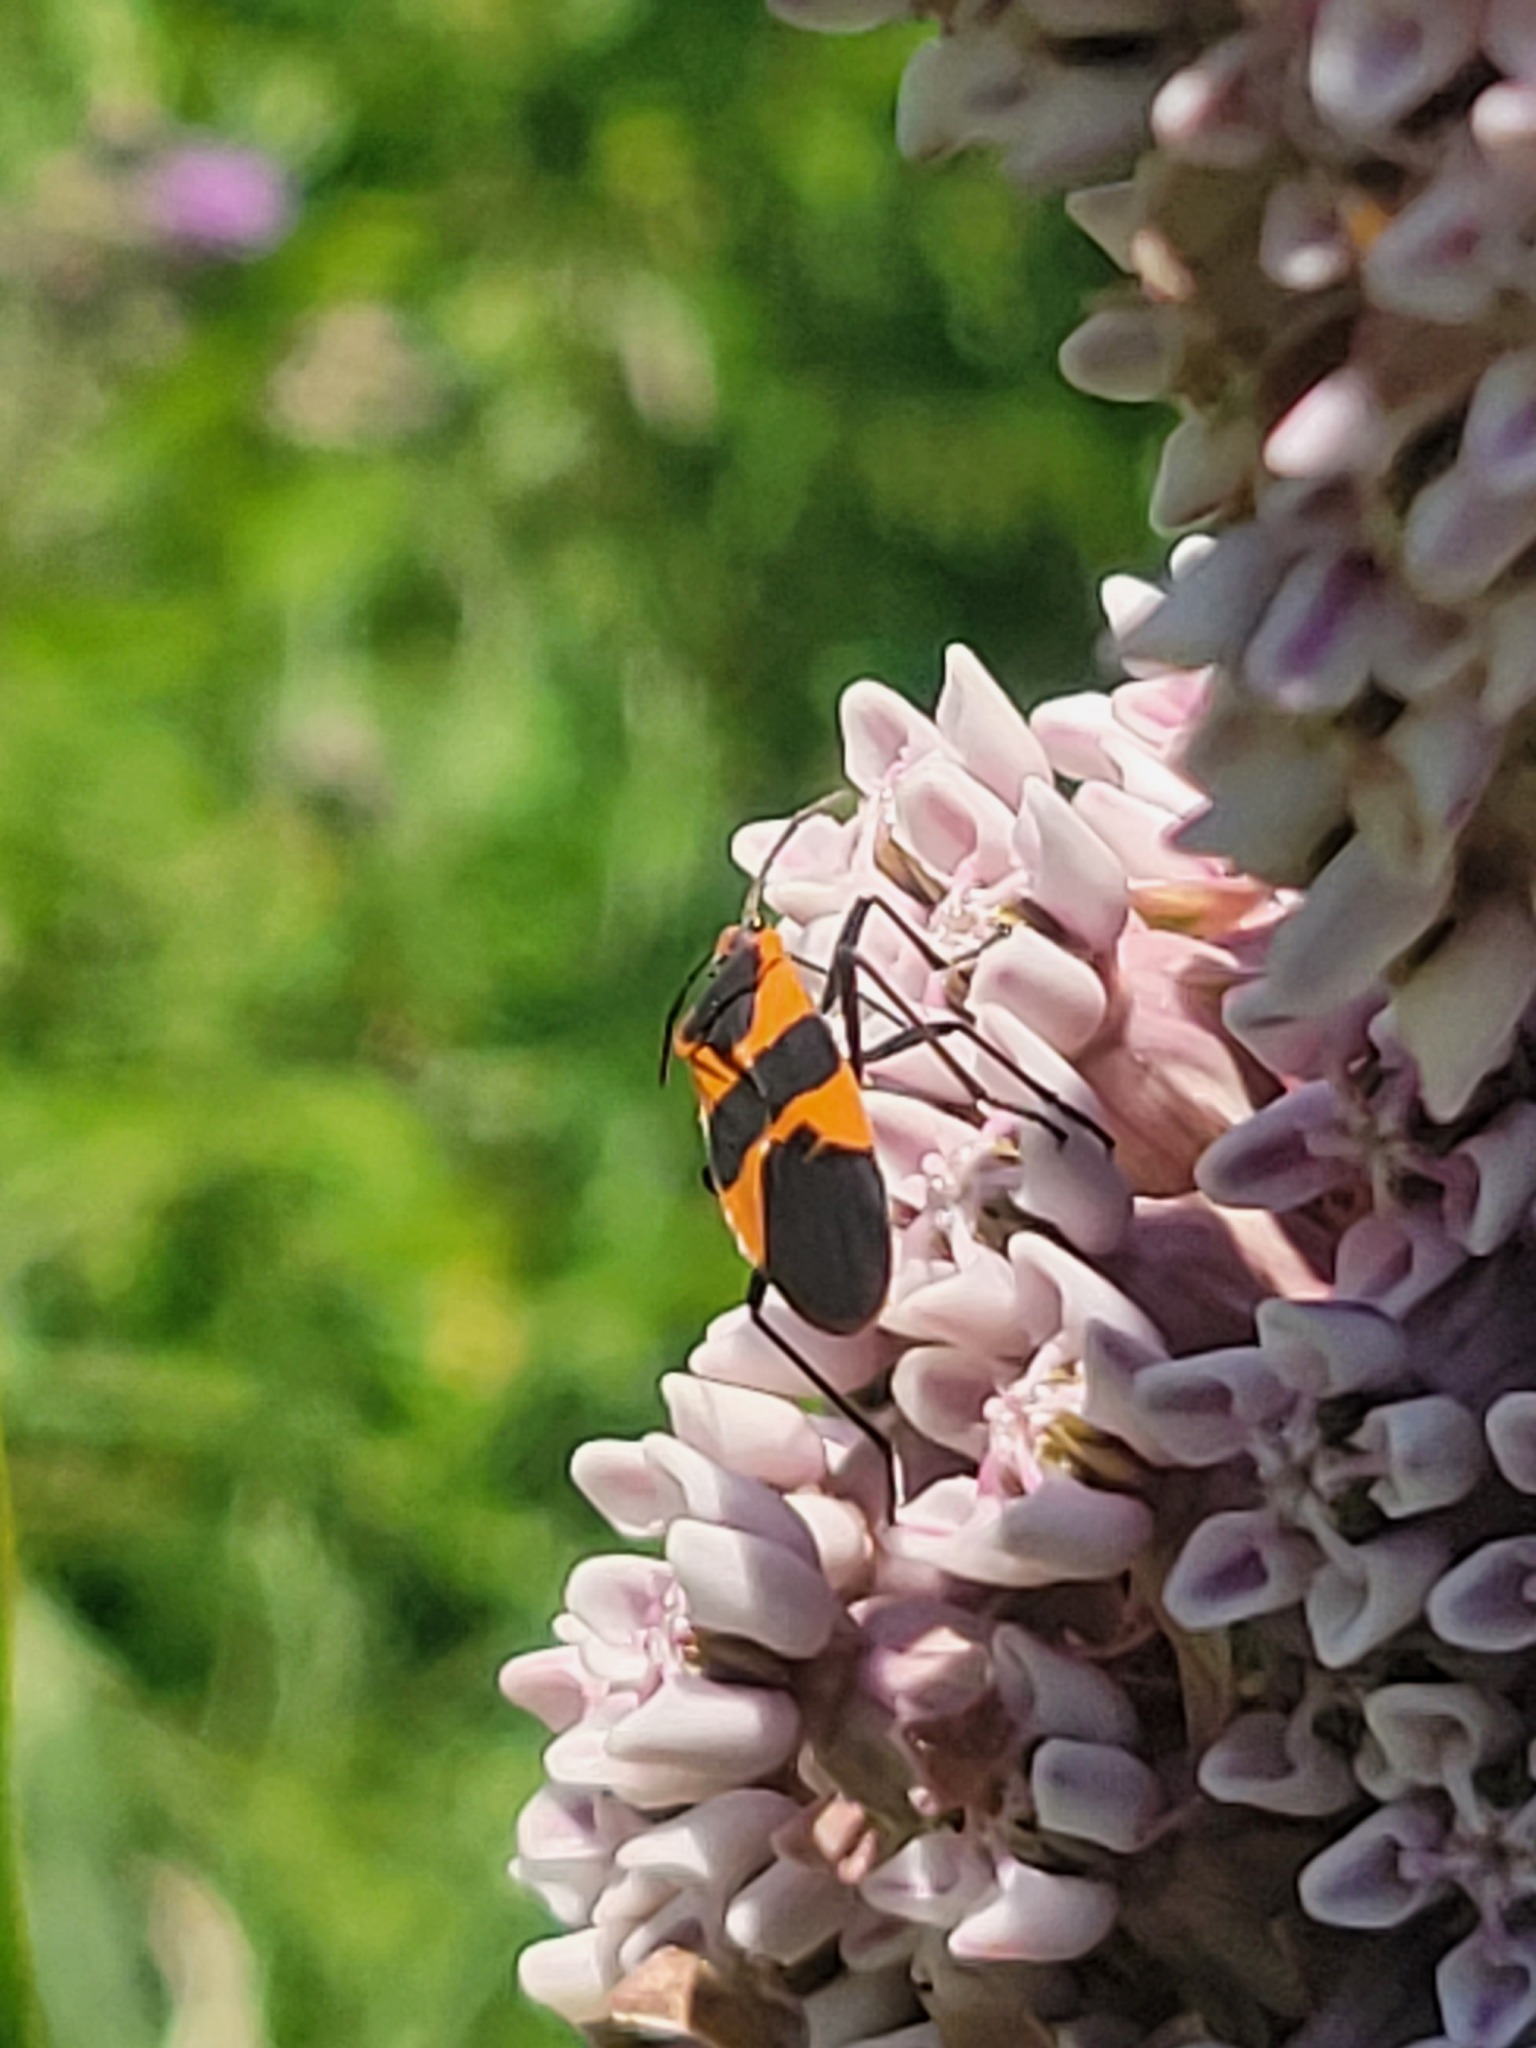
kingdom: Plantae
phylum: Tracheophyta
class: Magnoliopsida
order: Gentianales
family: Apocynaceae
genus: Asclepias
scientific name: Asclepias syriaca
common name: Common milkweed
